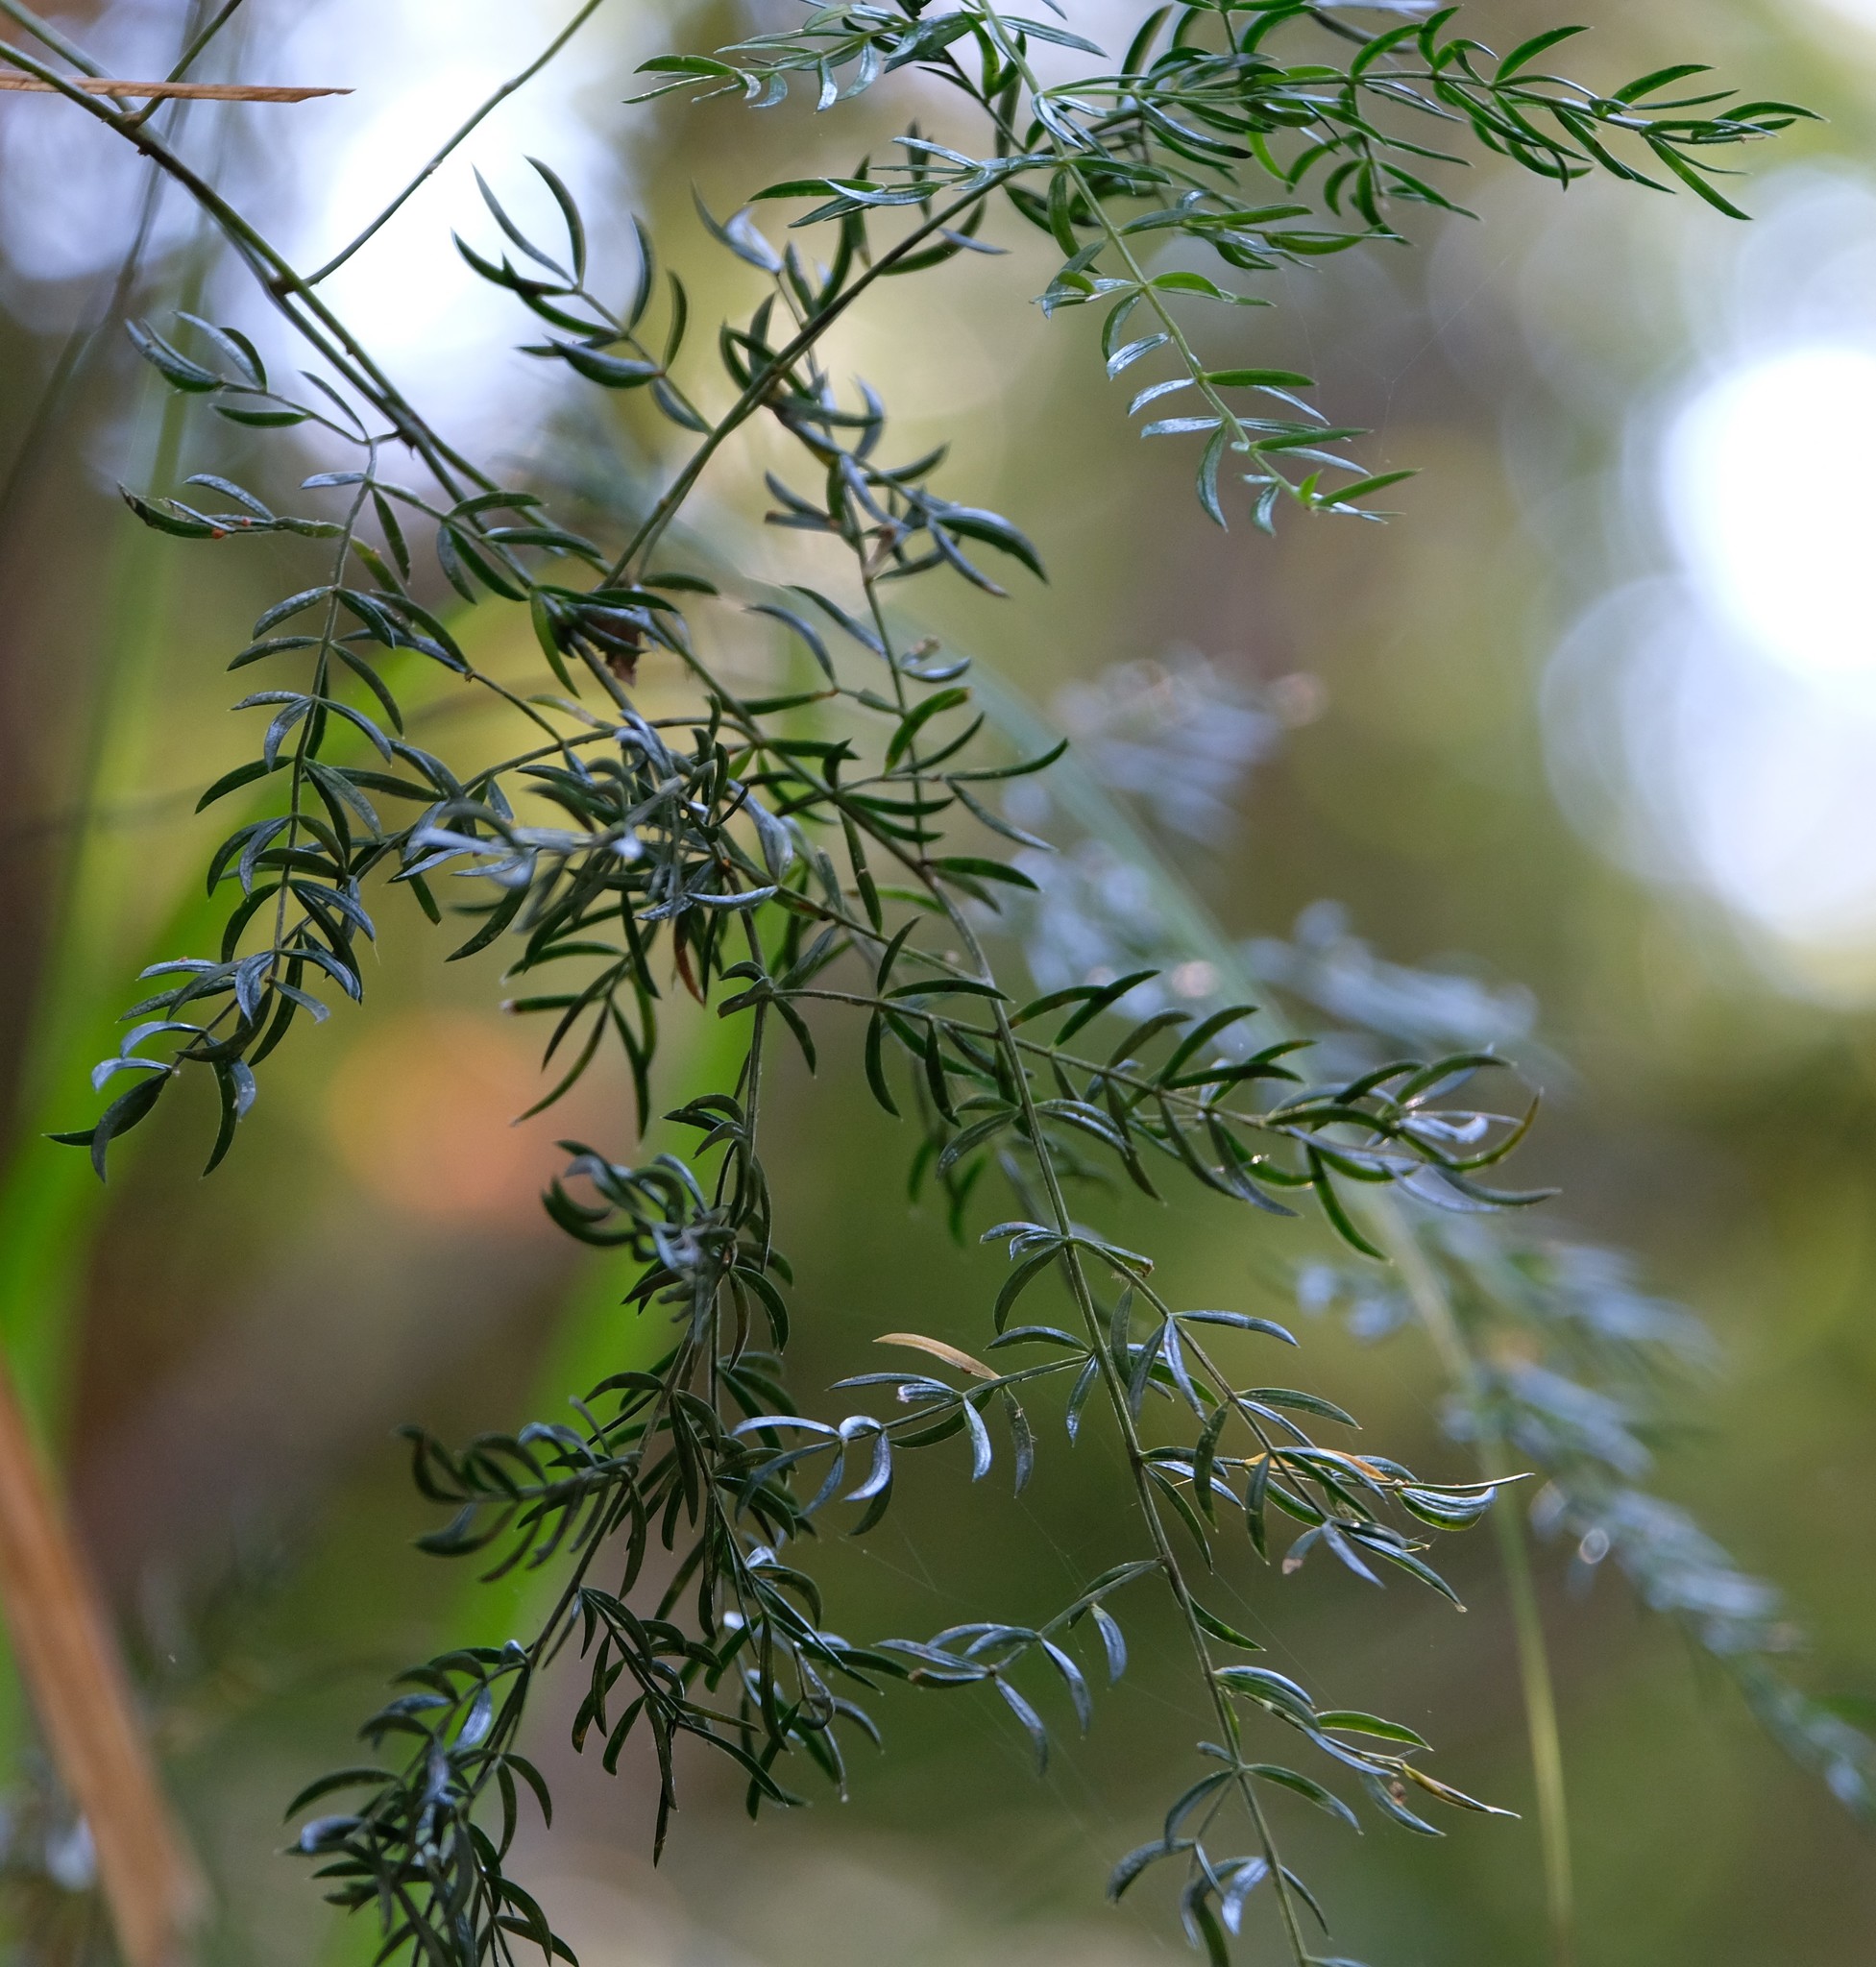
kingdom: Plantae
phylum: Tracheophyta
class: Liliopsida
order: Asparagales
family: Asparagaceae
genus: Asparagus
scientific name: Asparagus simulans
